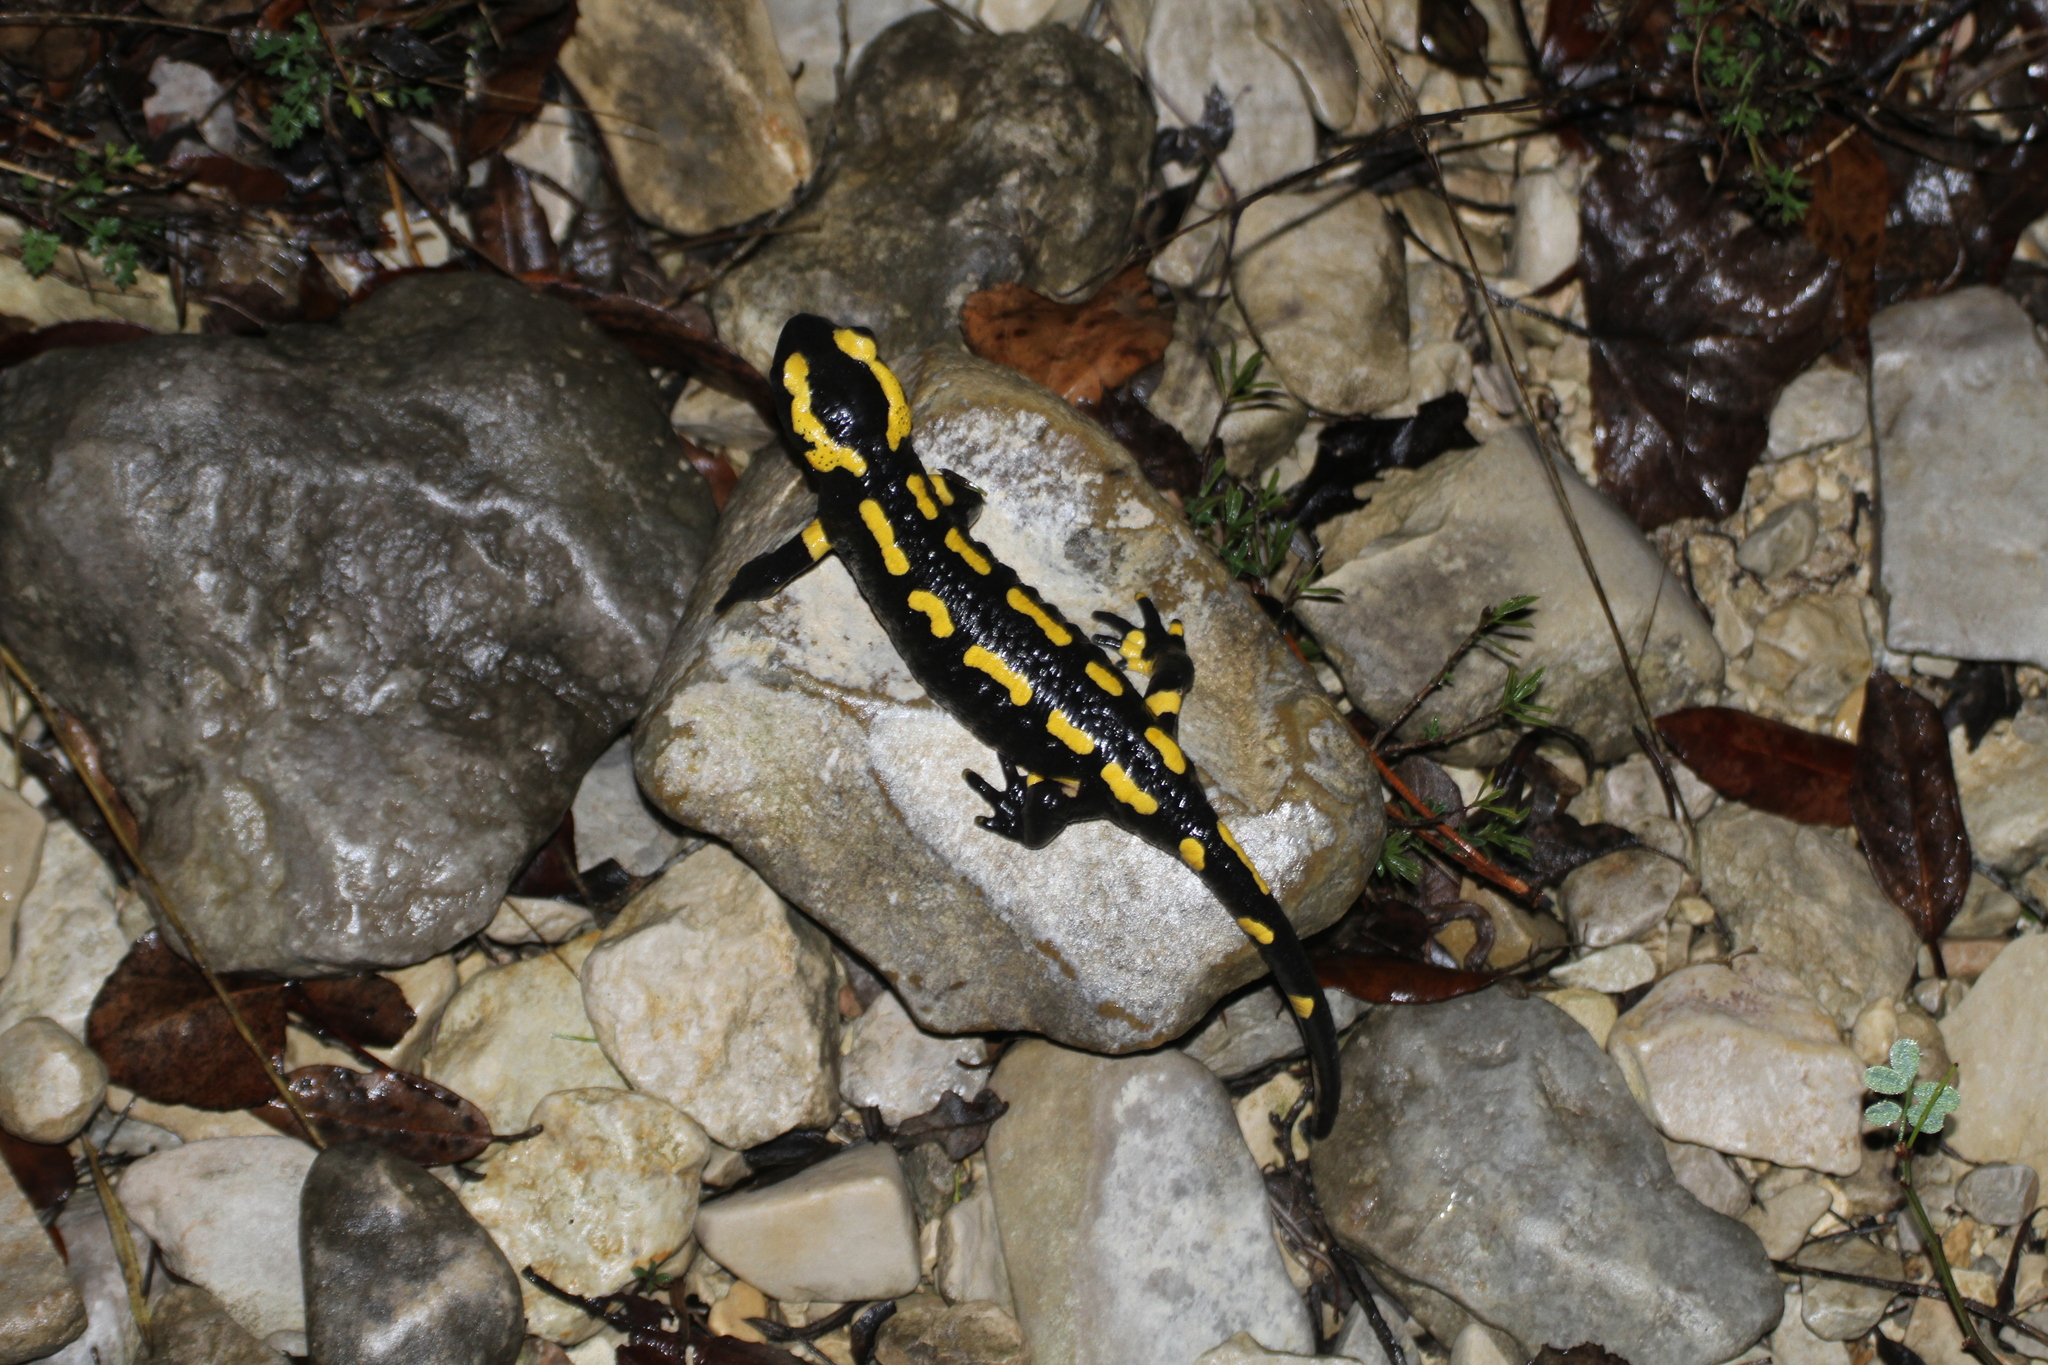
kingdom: Animalia
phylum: Chordata
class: Amphibia
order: Caudata
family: Salamandridae
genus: Salamandra
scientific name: Salamandra salamandra
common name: Fire salamander
